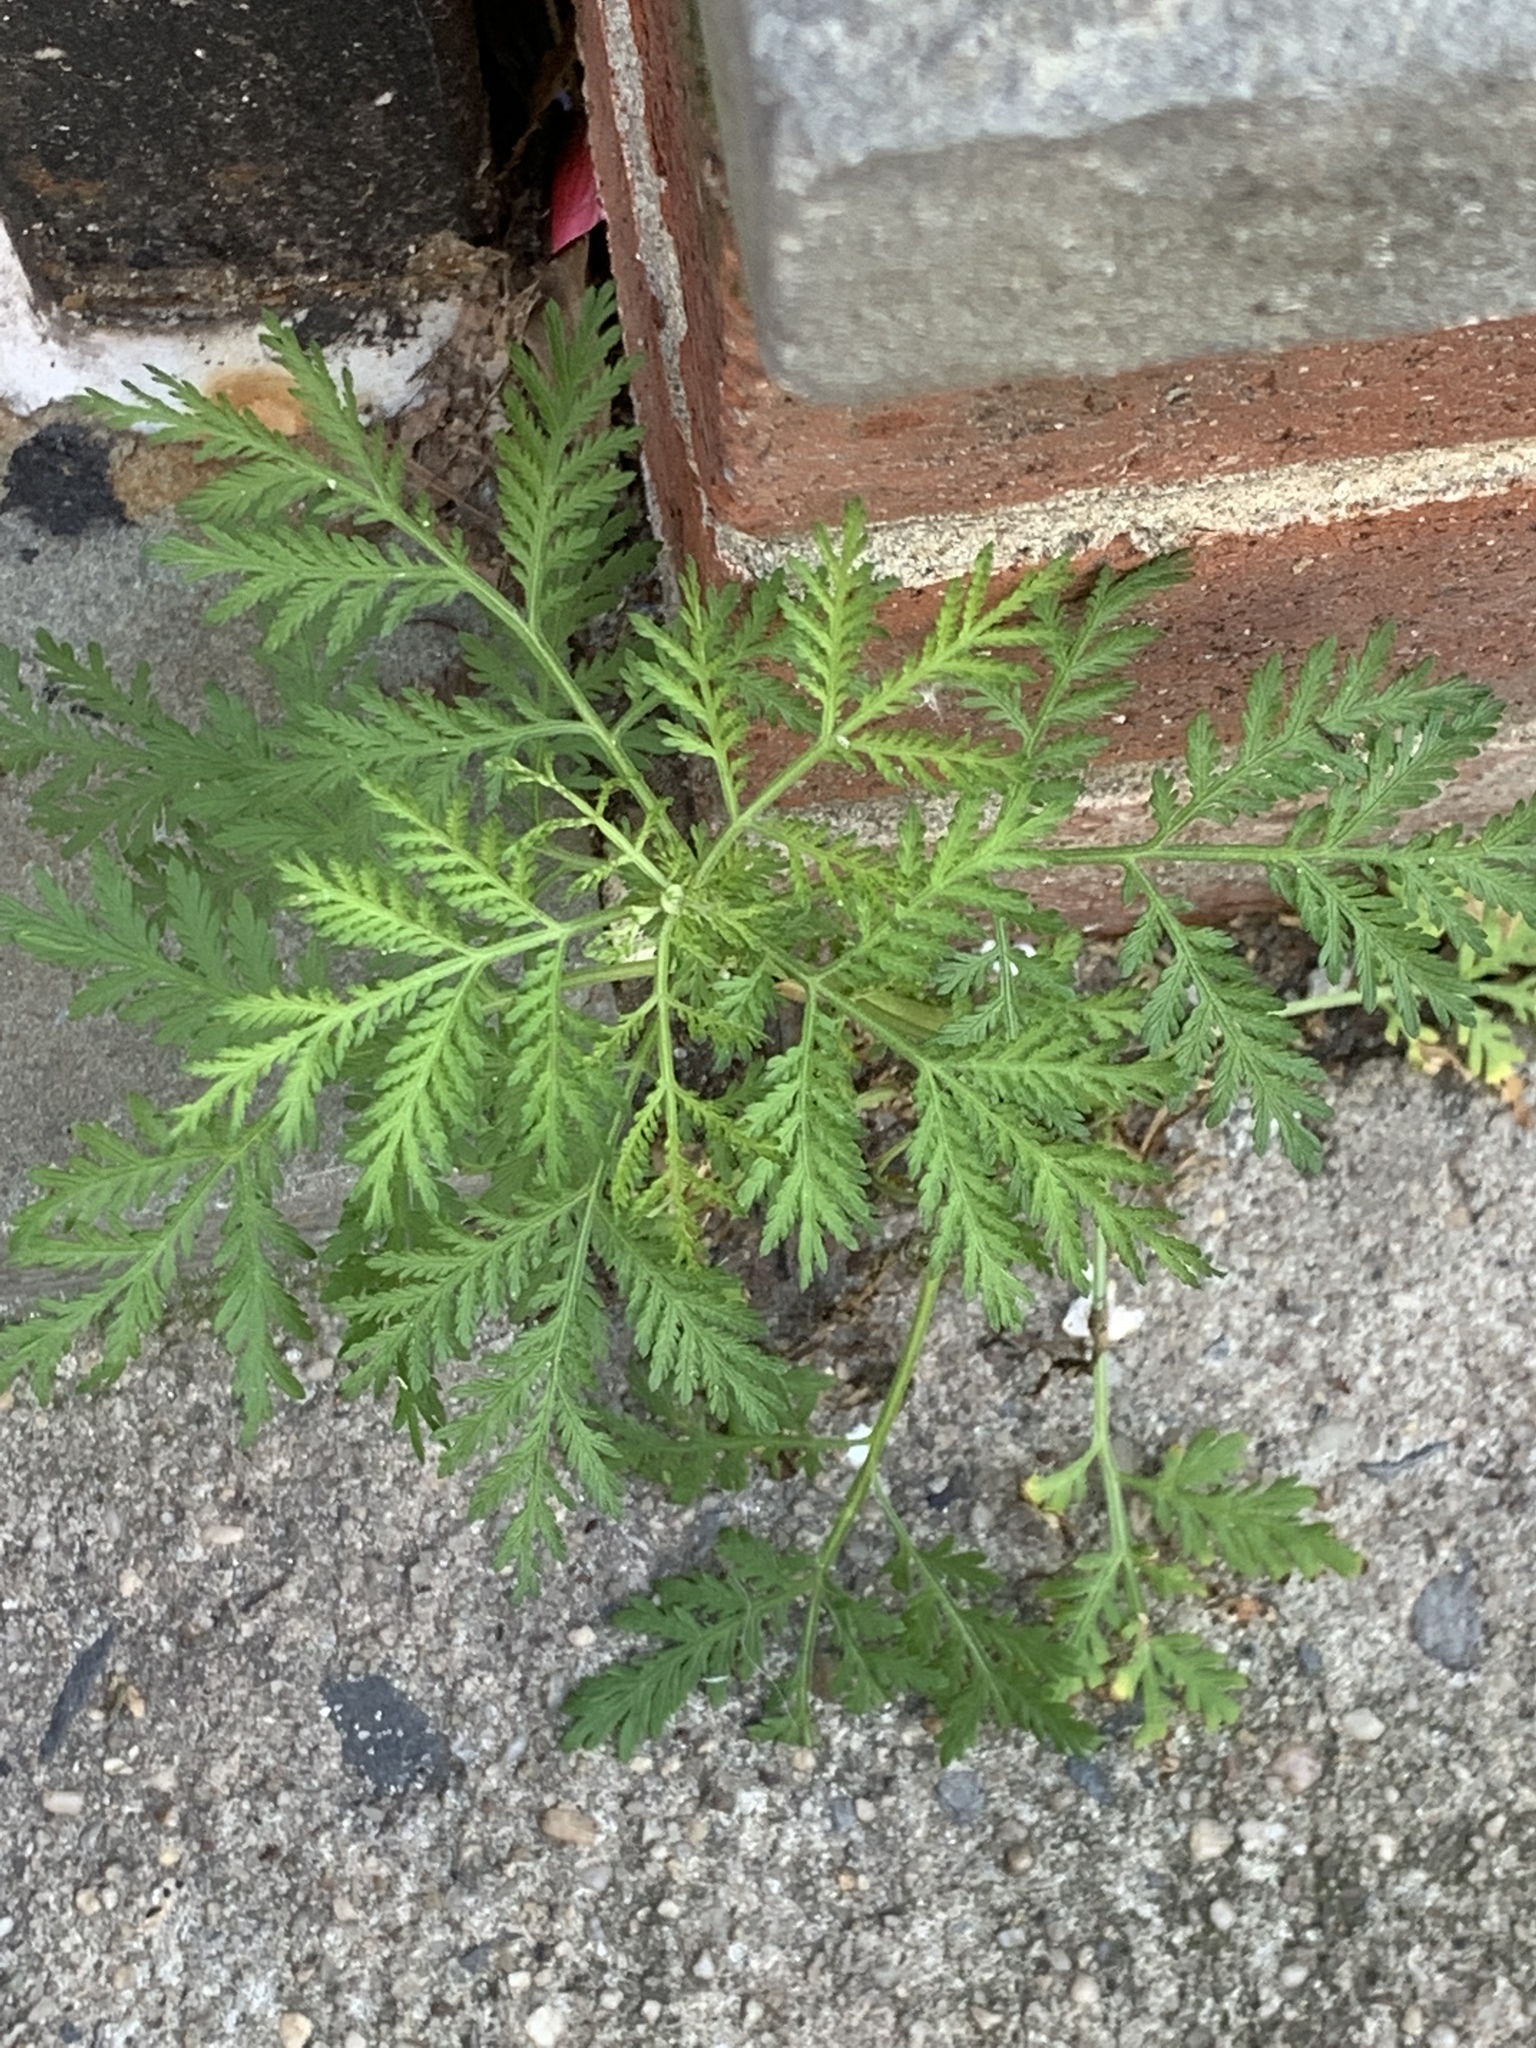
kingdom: Plantae
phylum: Tracheophyta
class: Magnoliopsida
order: Asterales
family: Asteraceae
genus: Artemisia
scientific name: Artemisia annua
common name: Sweet sagewort
